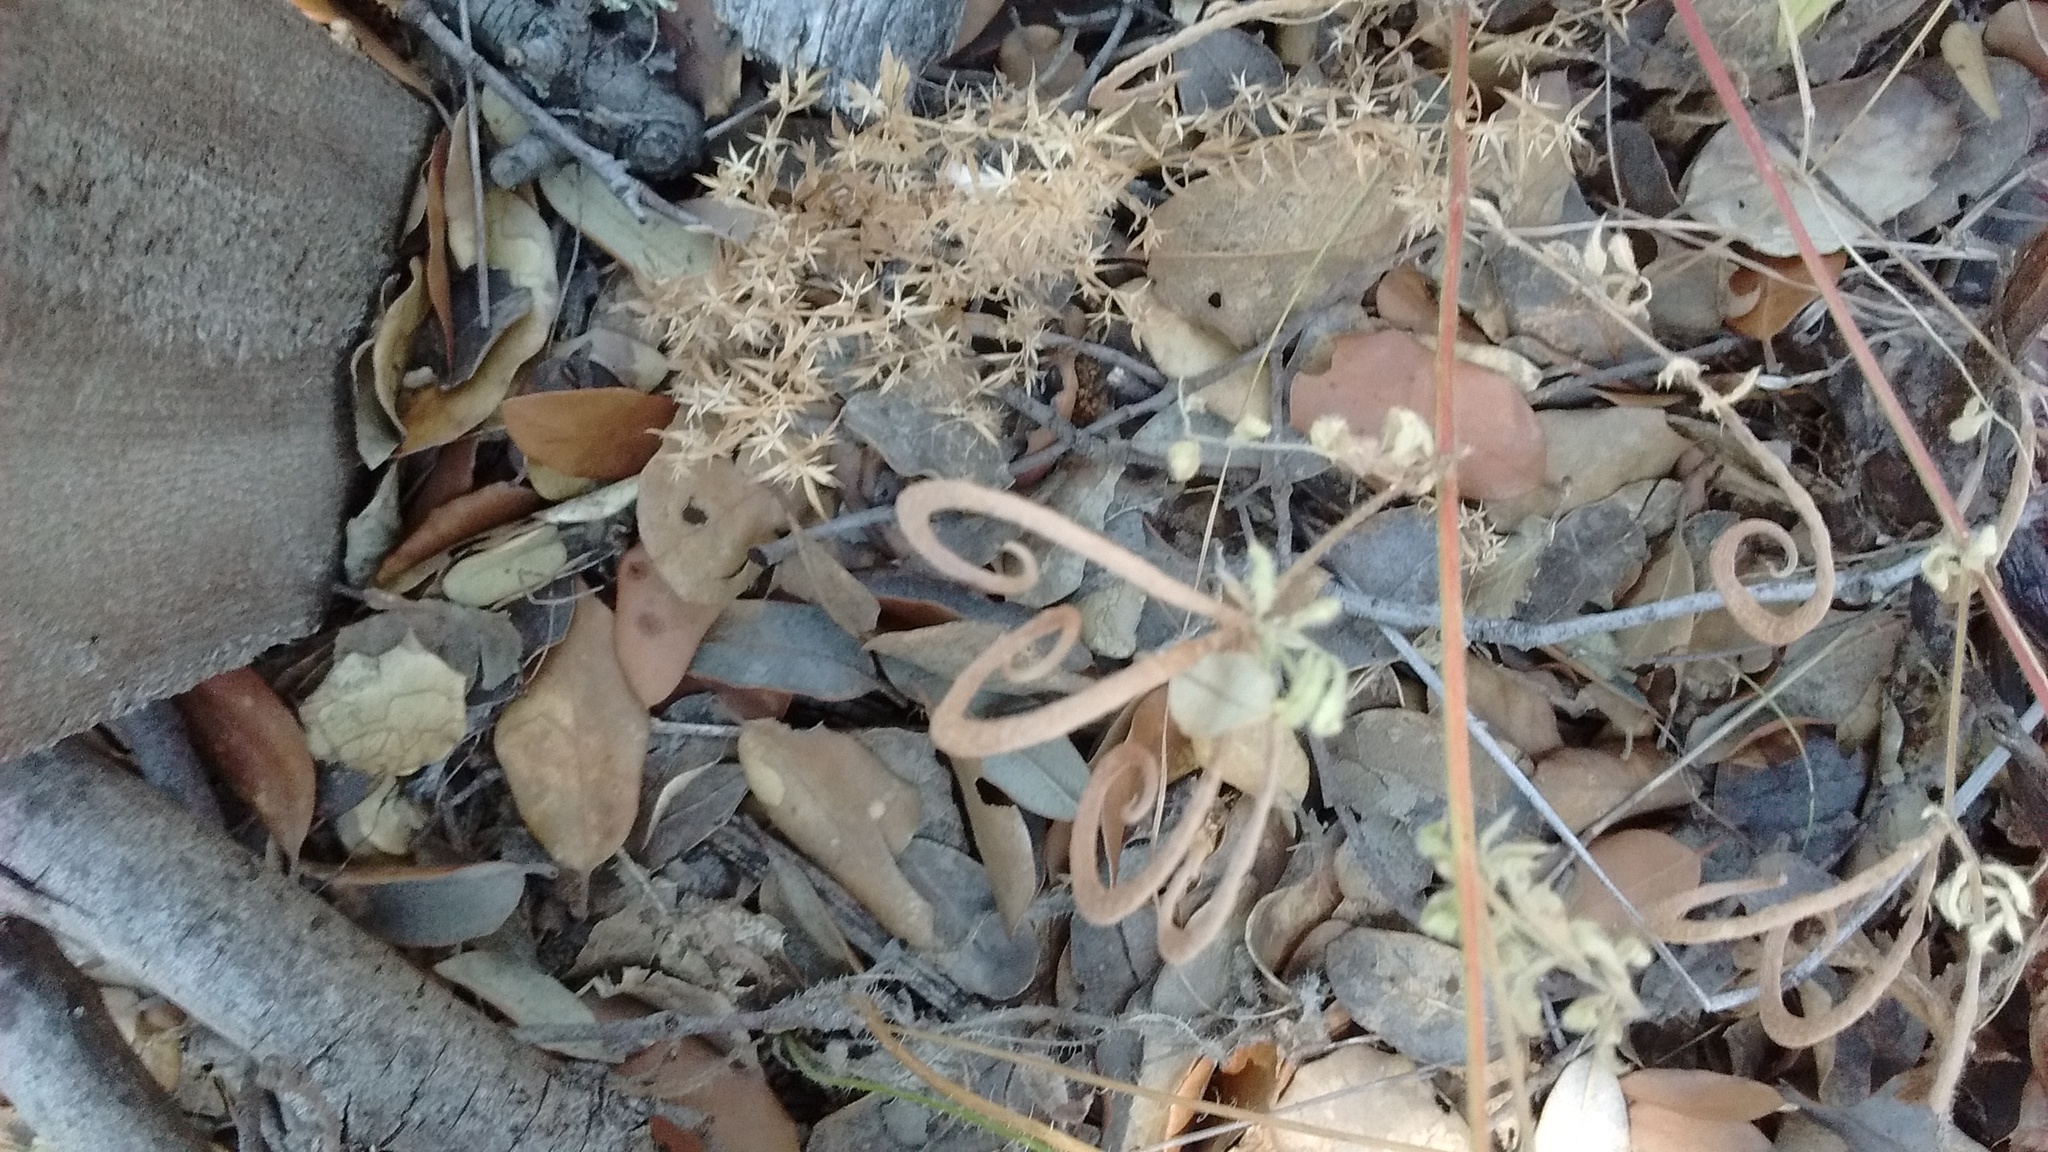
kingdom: Plantae
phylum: Tracheophyta
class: Magnoliopsida
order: Fabales
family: Fabaceae
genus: Ornithopus
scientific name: Ornithopus compressus
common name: Yellow serradella
